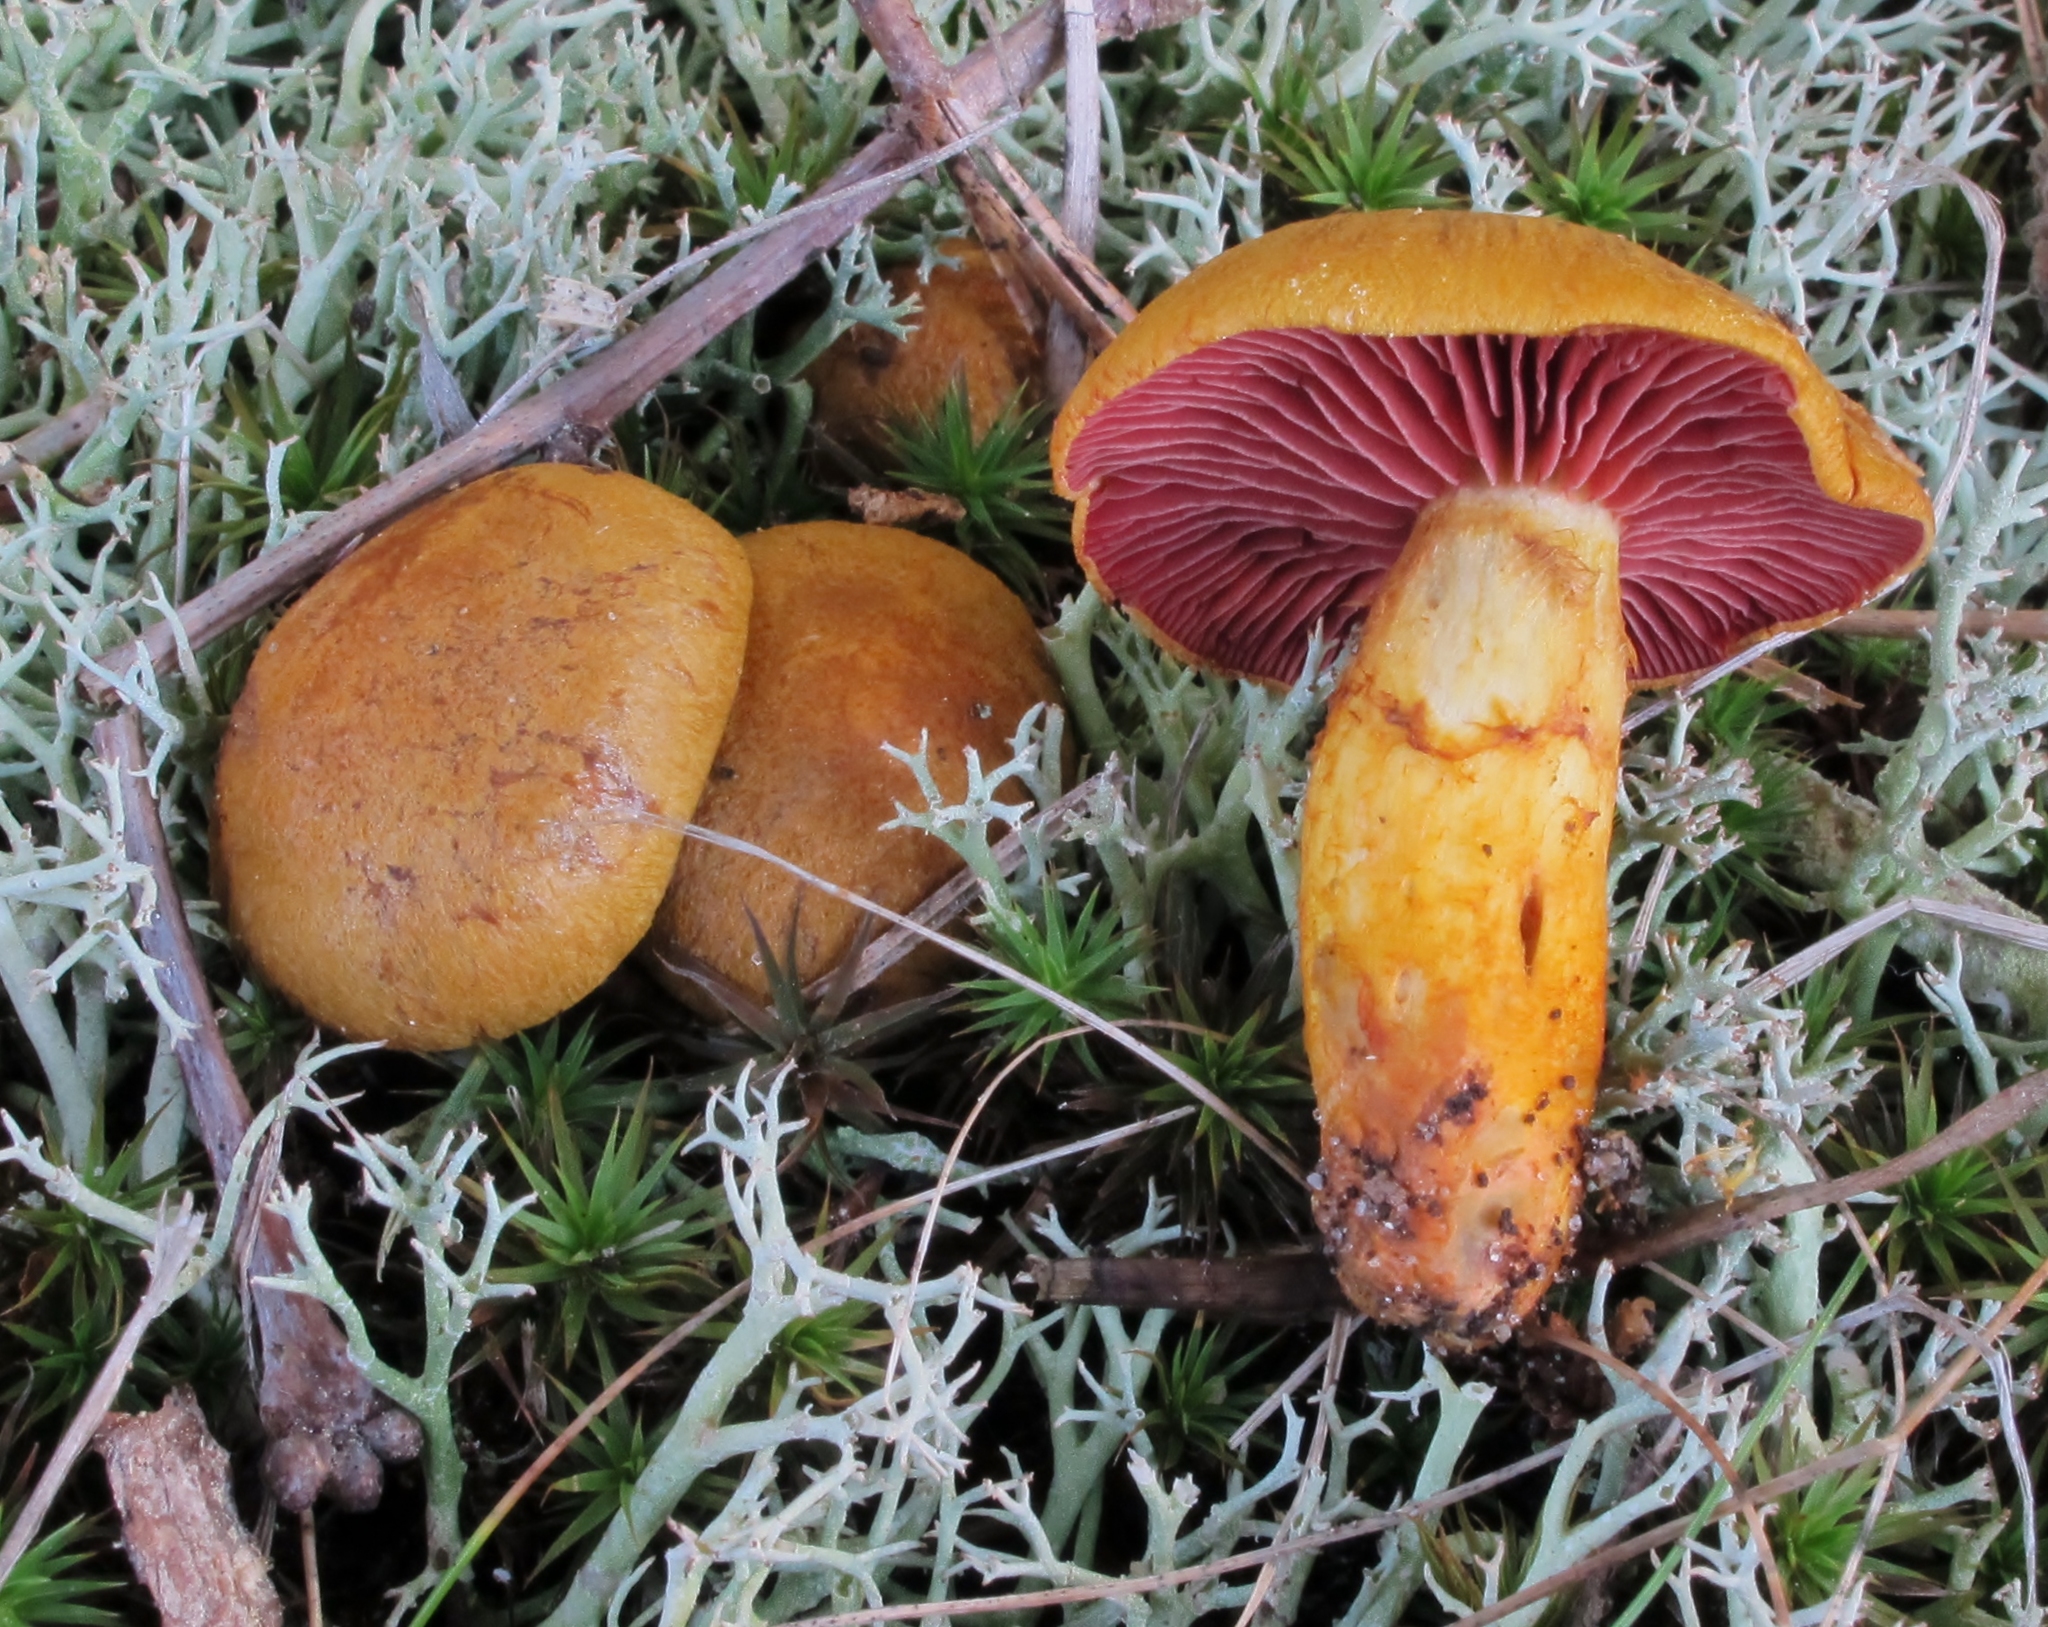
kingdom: Fungi
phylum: Basidiomycota
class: Agaricomycetes
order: Agaricales
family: Cortinariaceae
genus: Cortinarius
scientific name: Cortinarius semisanguineus
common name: Surprise webcap
